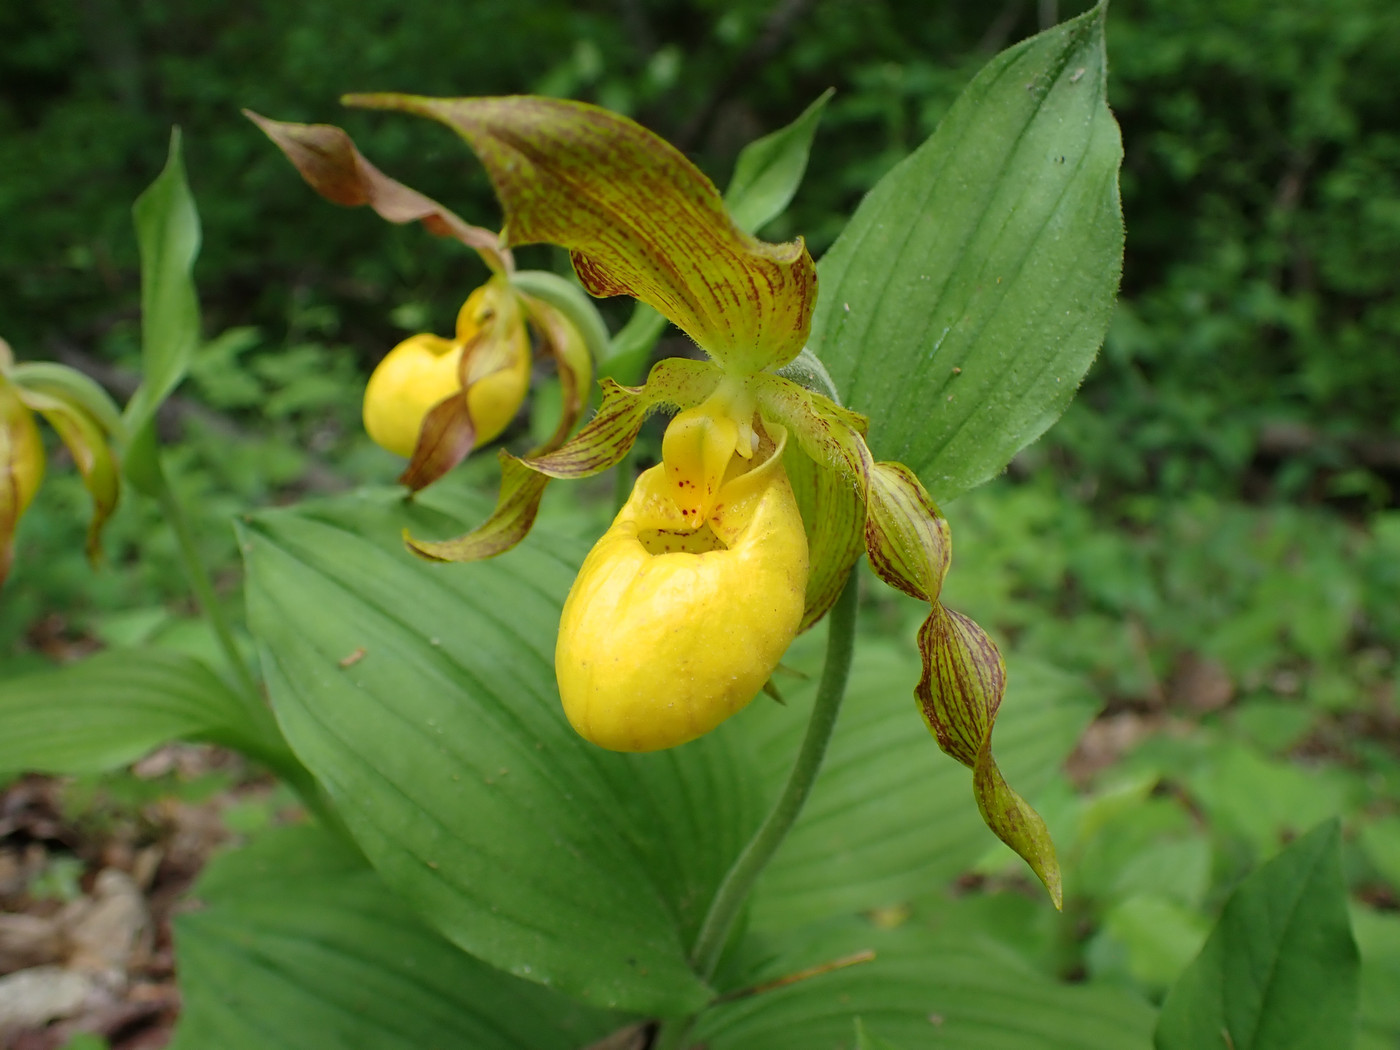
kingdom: Plantae
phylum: Tracheophyta
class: Liliopsida
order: Asparagales
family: Orchidaceae
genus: Cypripedium
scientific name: Cypripedium parviflorum
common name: American yellow lady's-slipper
